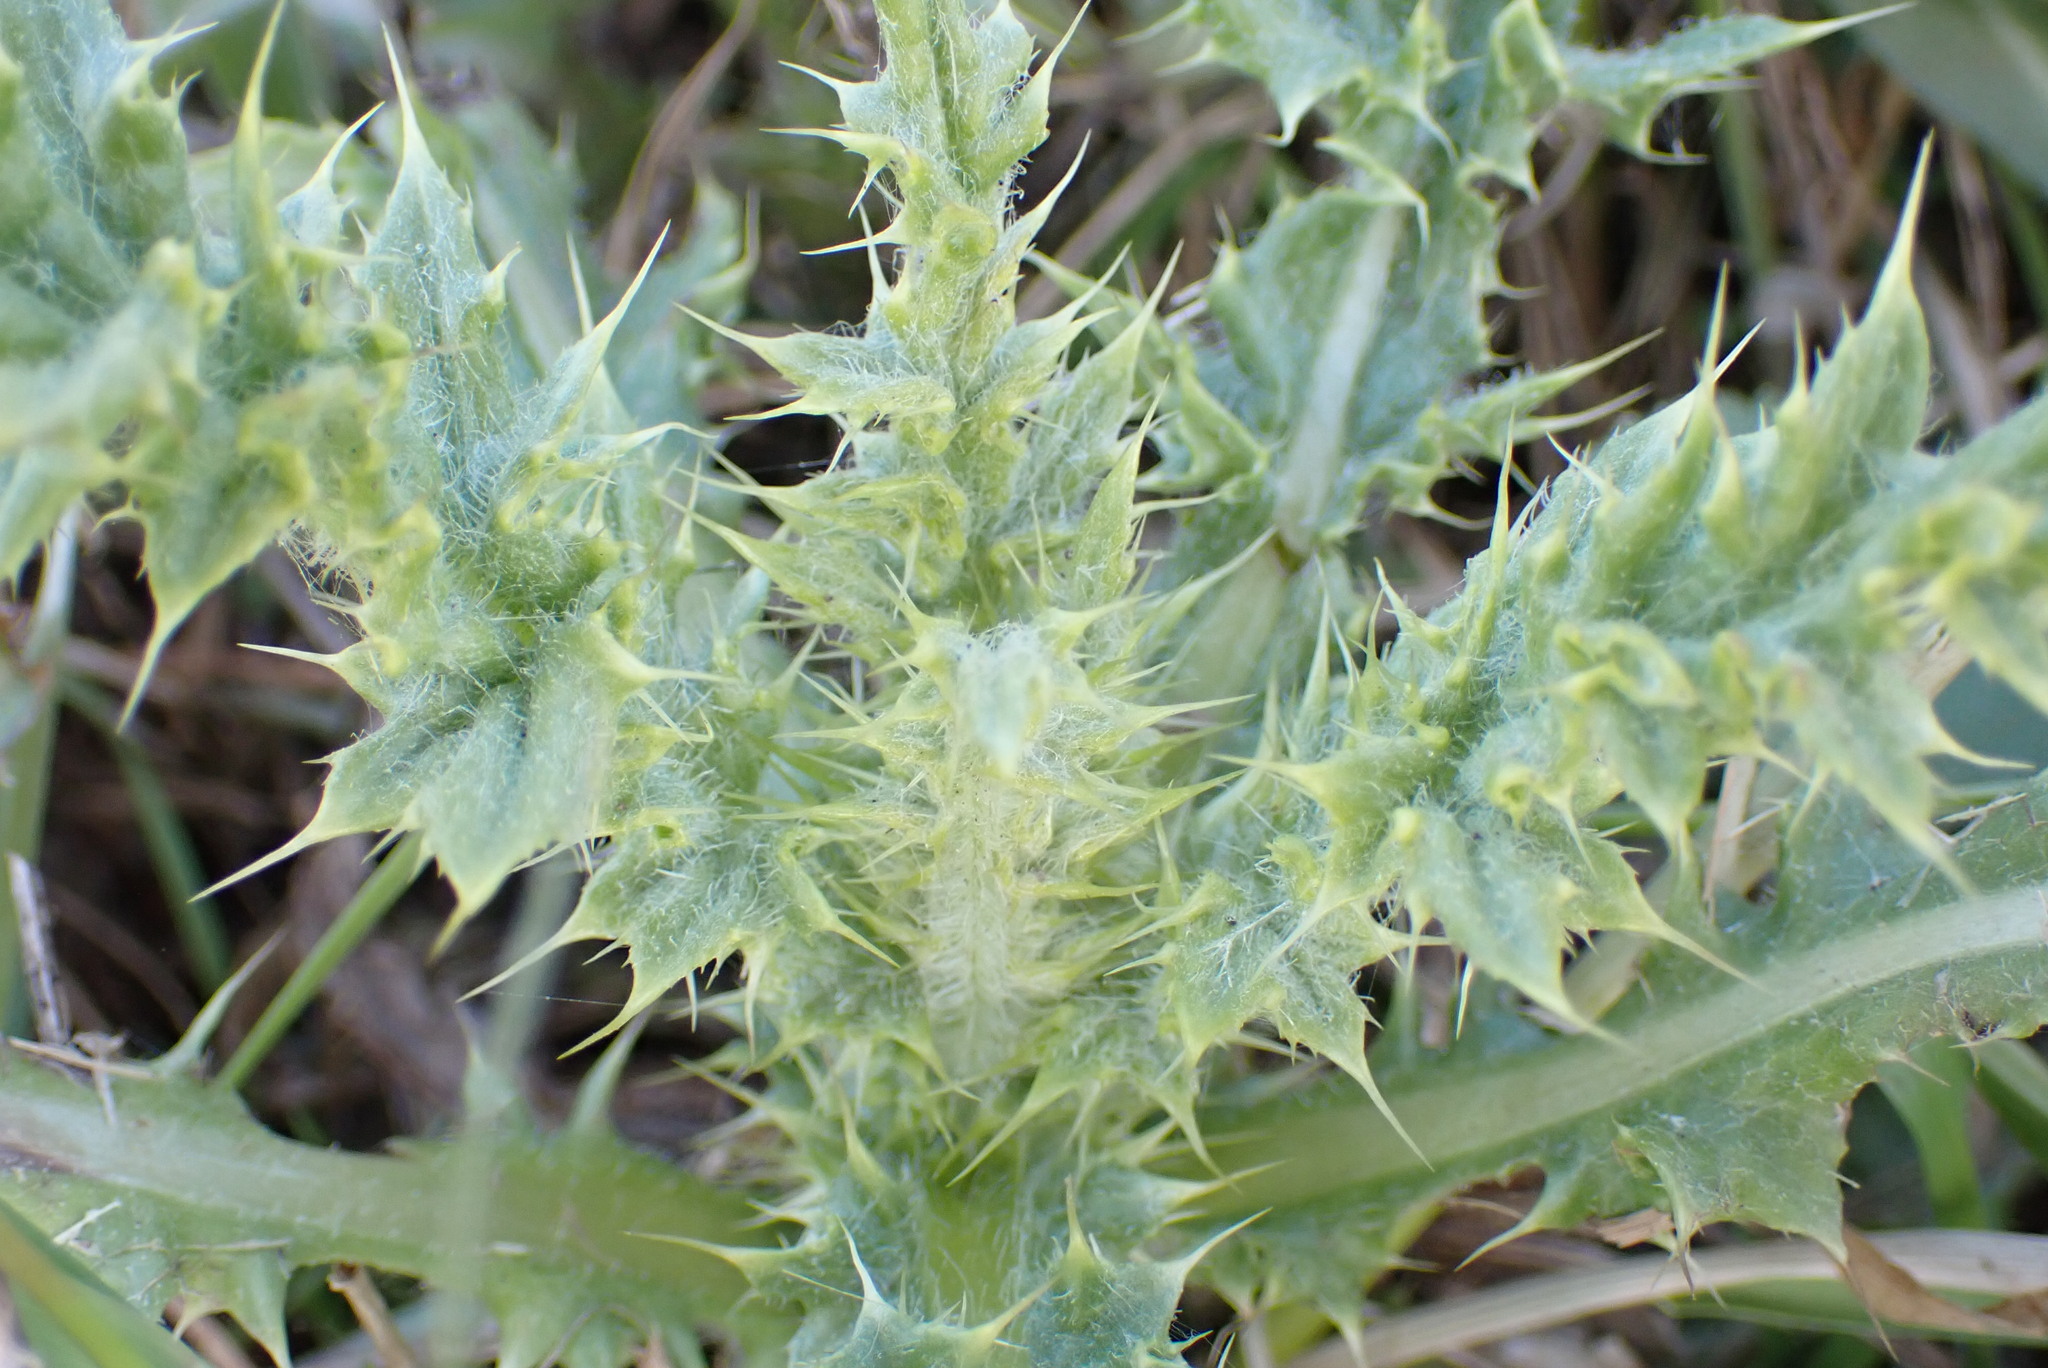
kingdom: Plantae
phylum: Tracheophyta
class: Magnoliopsida
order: Asterales
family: Asteraceae
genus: Cirsium
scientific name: Cirsium arvense
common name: Creeping thistle
